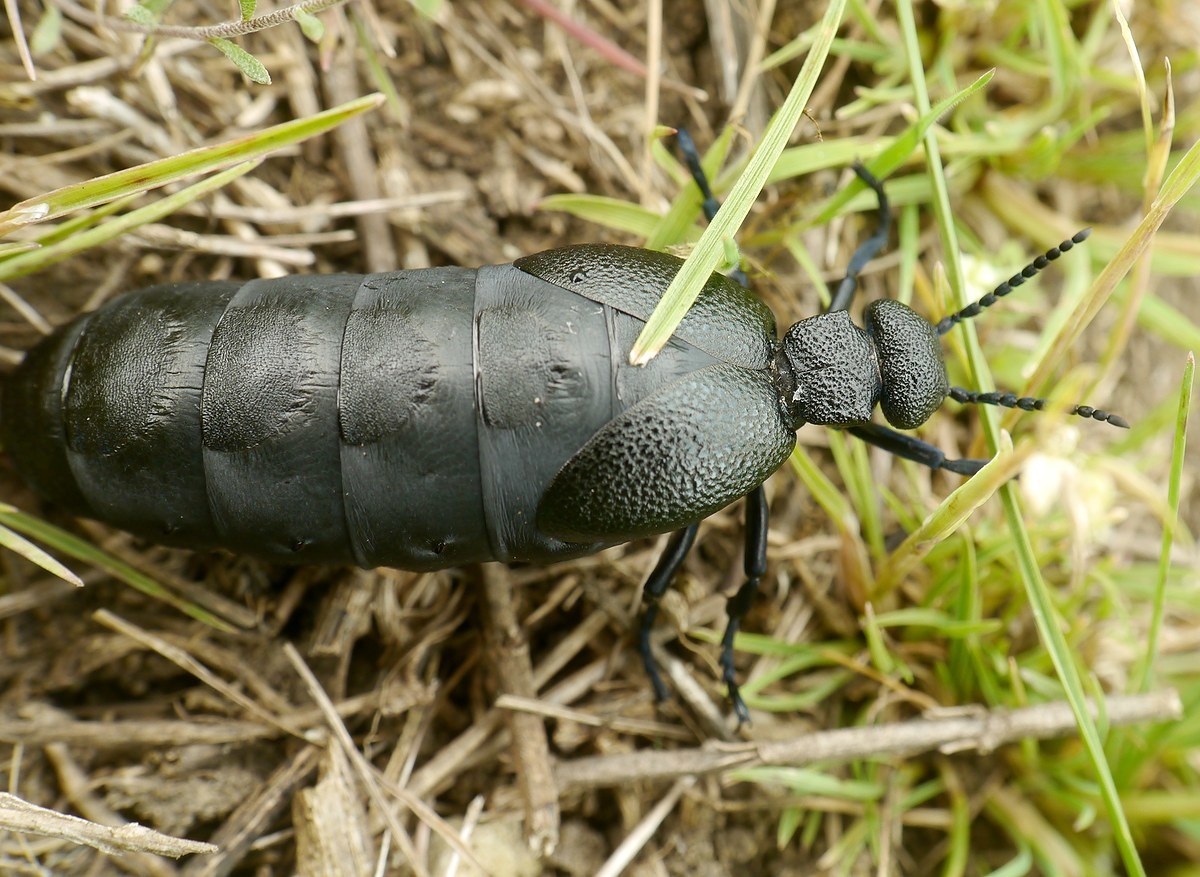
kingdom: Animalia
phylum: Arthropoda
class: Insecta
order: Coleoptera
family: Meloidae
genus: Meloe
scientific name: Meloe cicatricosus
